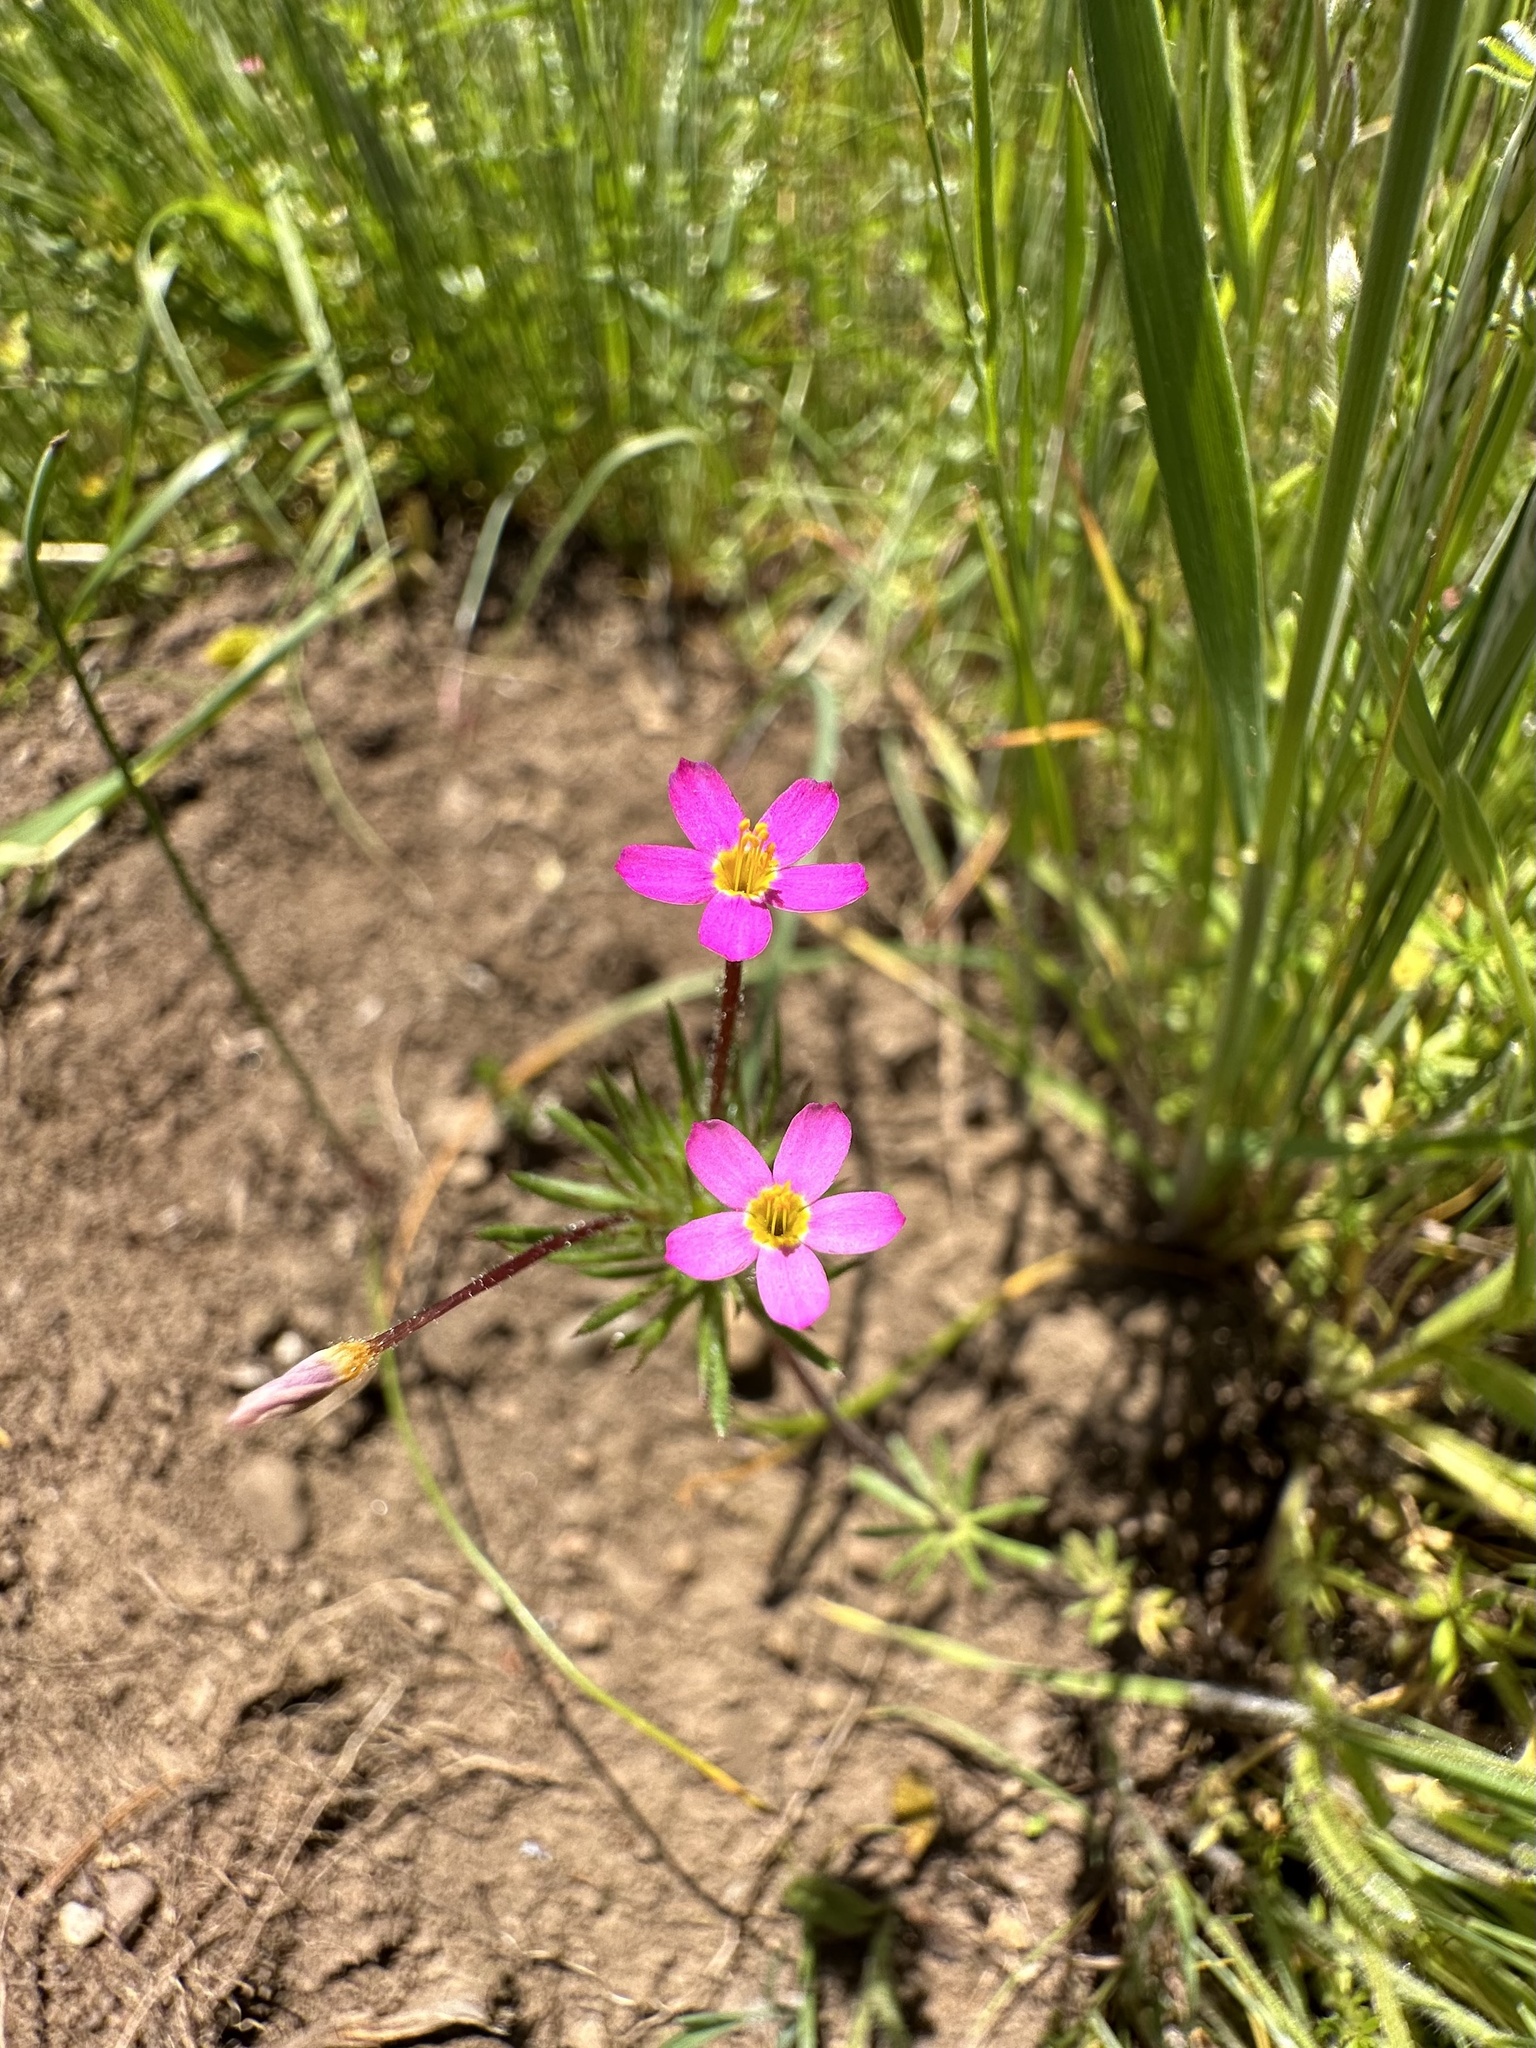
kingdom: Plantae
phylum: Tracheophyta
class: Magnoliopsida
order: Ericales
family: Polemoniaceae
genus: Leptosiphon
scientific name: Leptosiphon bicolor
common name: True babystars
